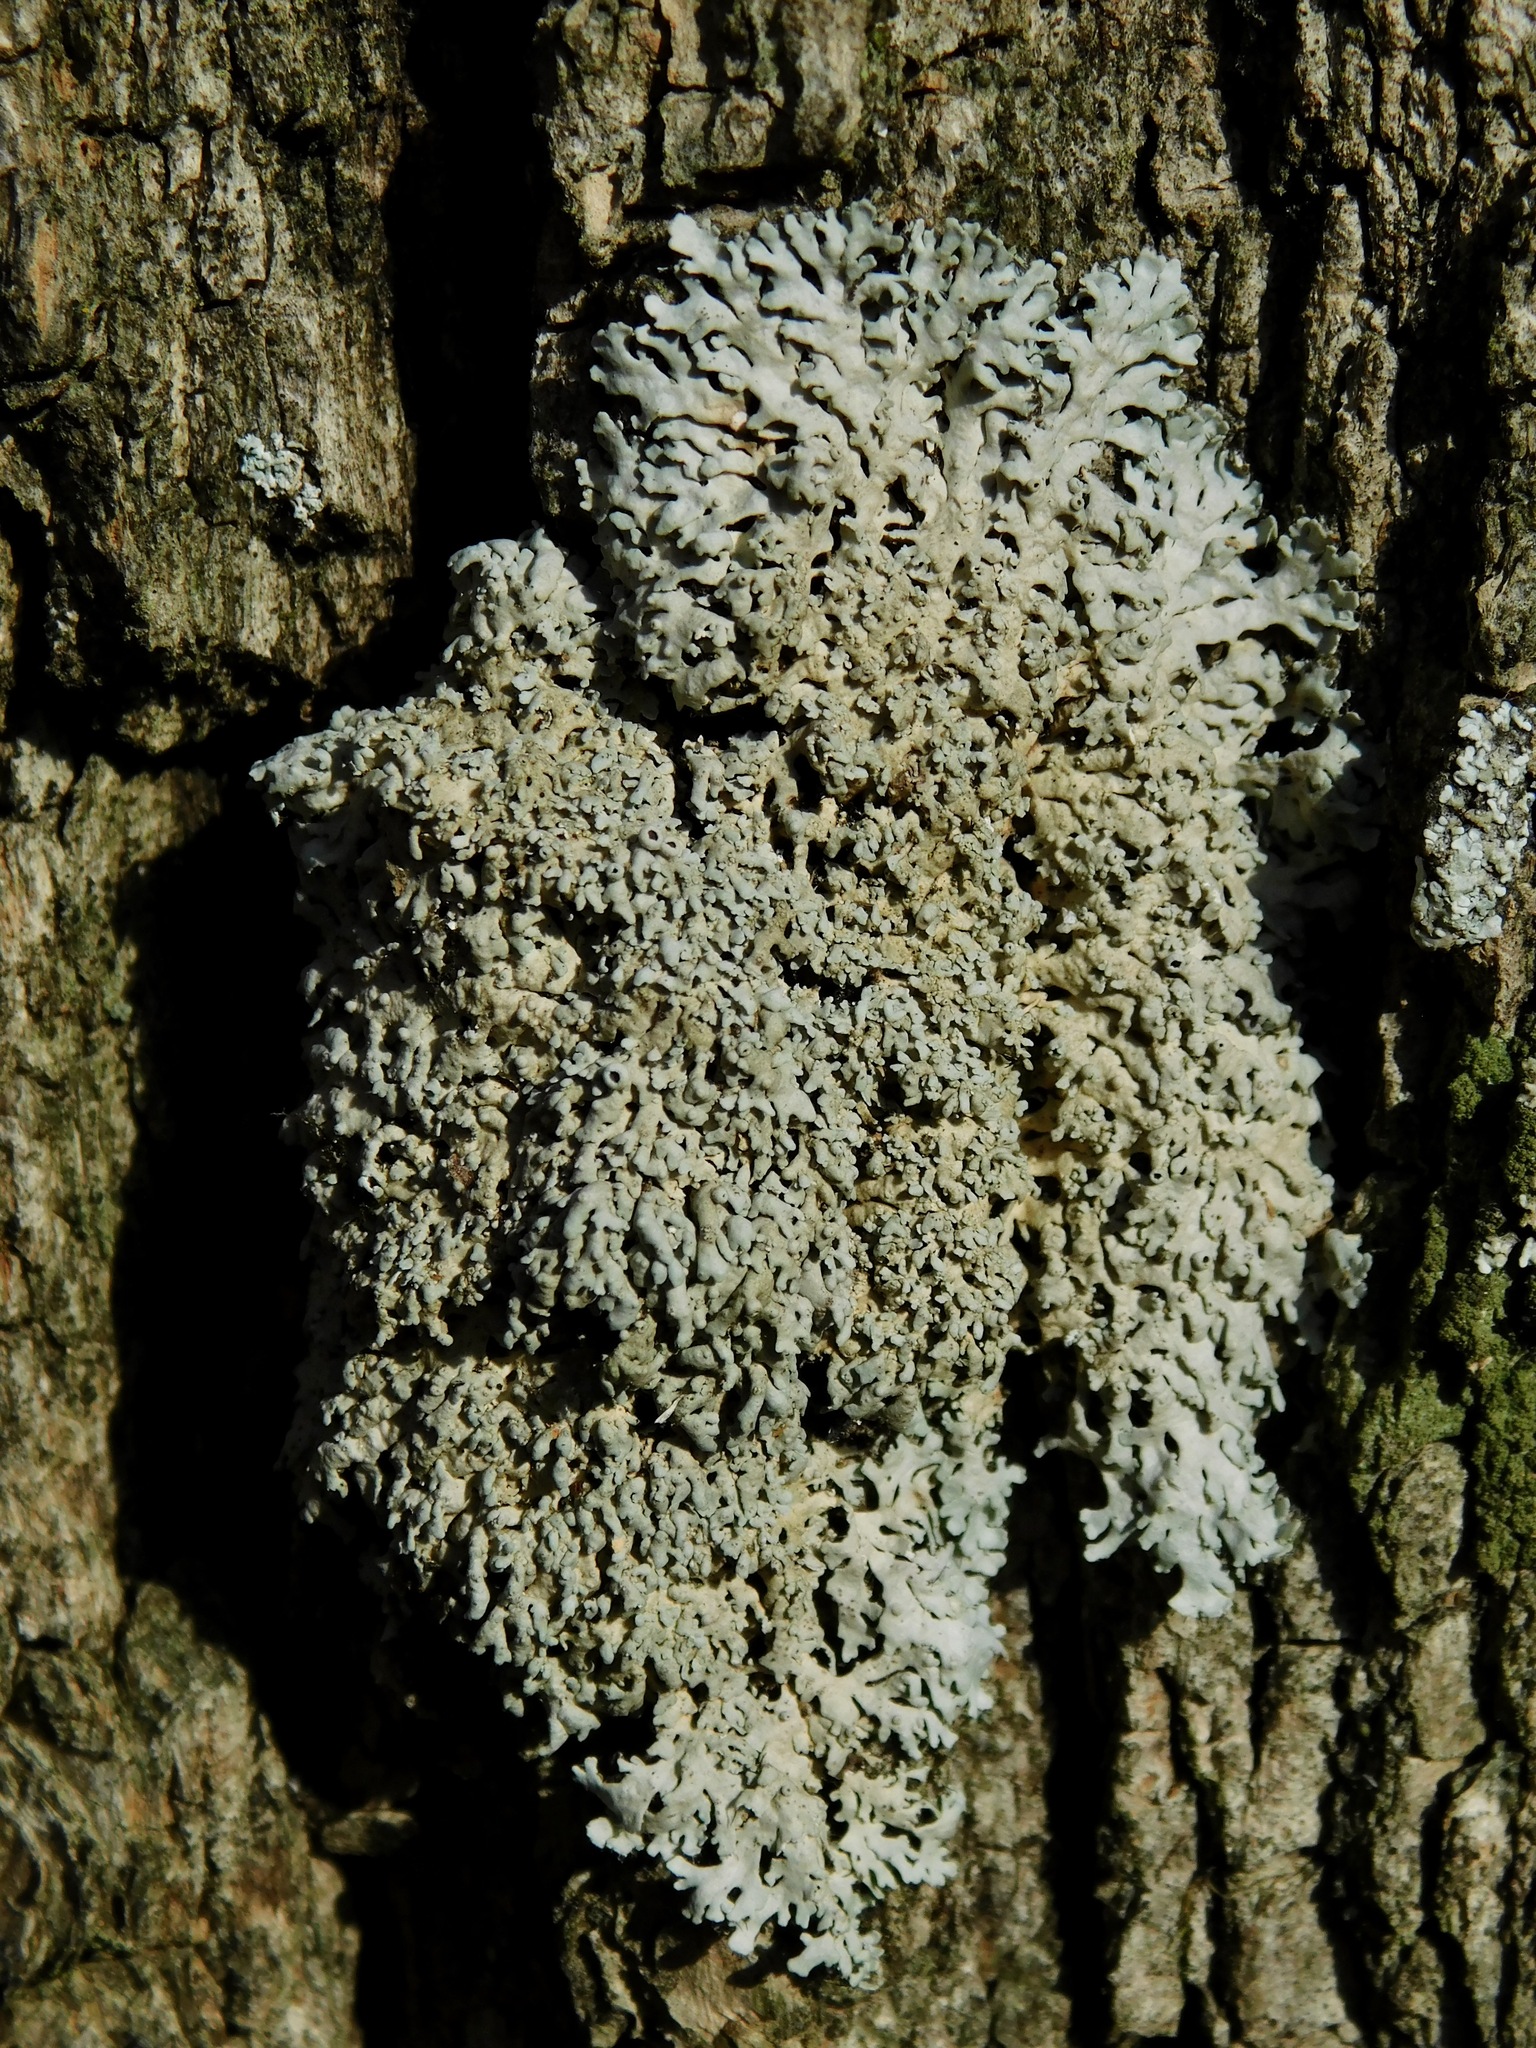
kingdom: Fungi
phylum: Ascomycota
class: Lecanoromycetes
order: Caliciales
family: Physciaceae
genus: Polyblastidium
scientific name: Polyblastidium hypoleucum
